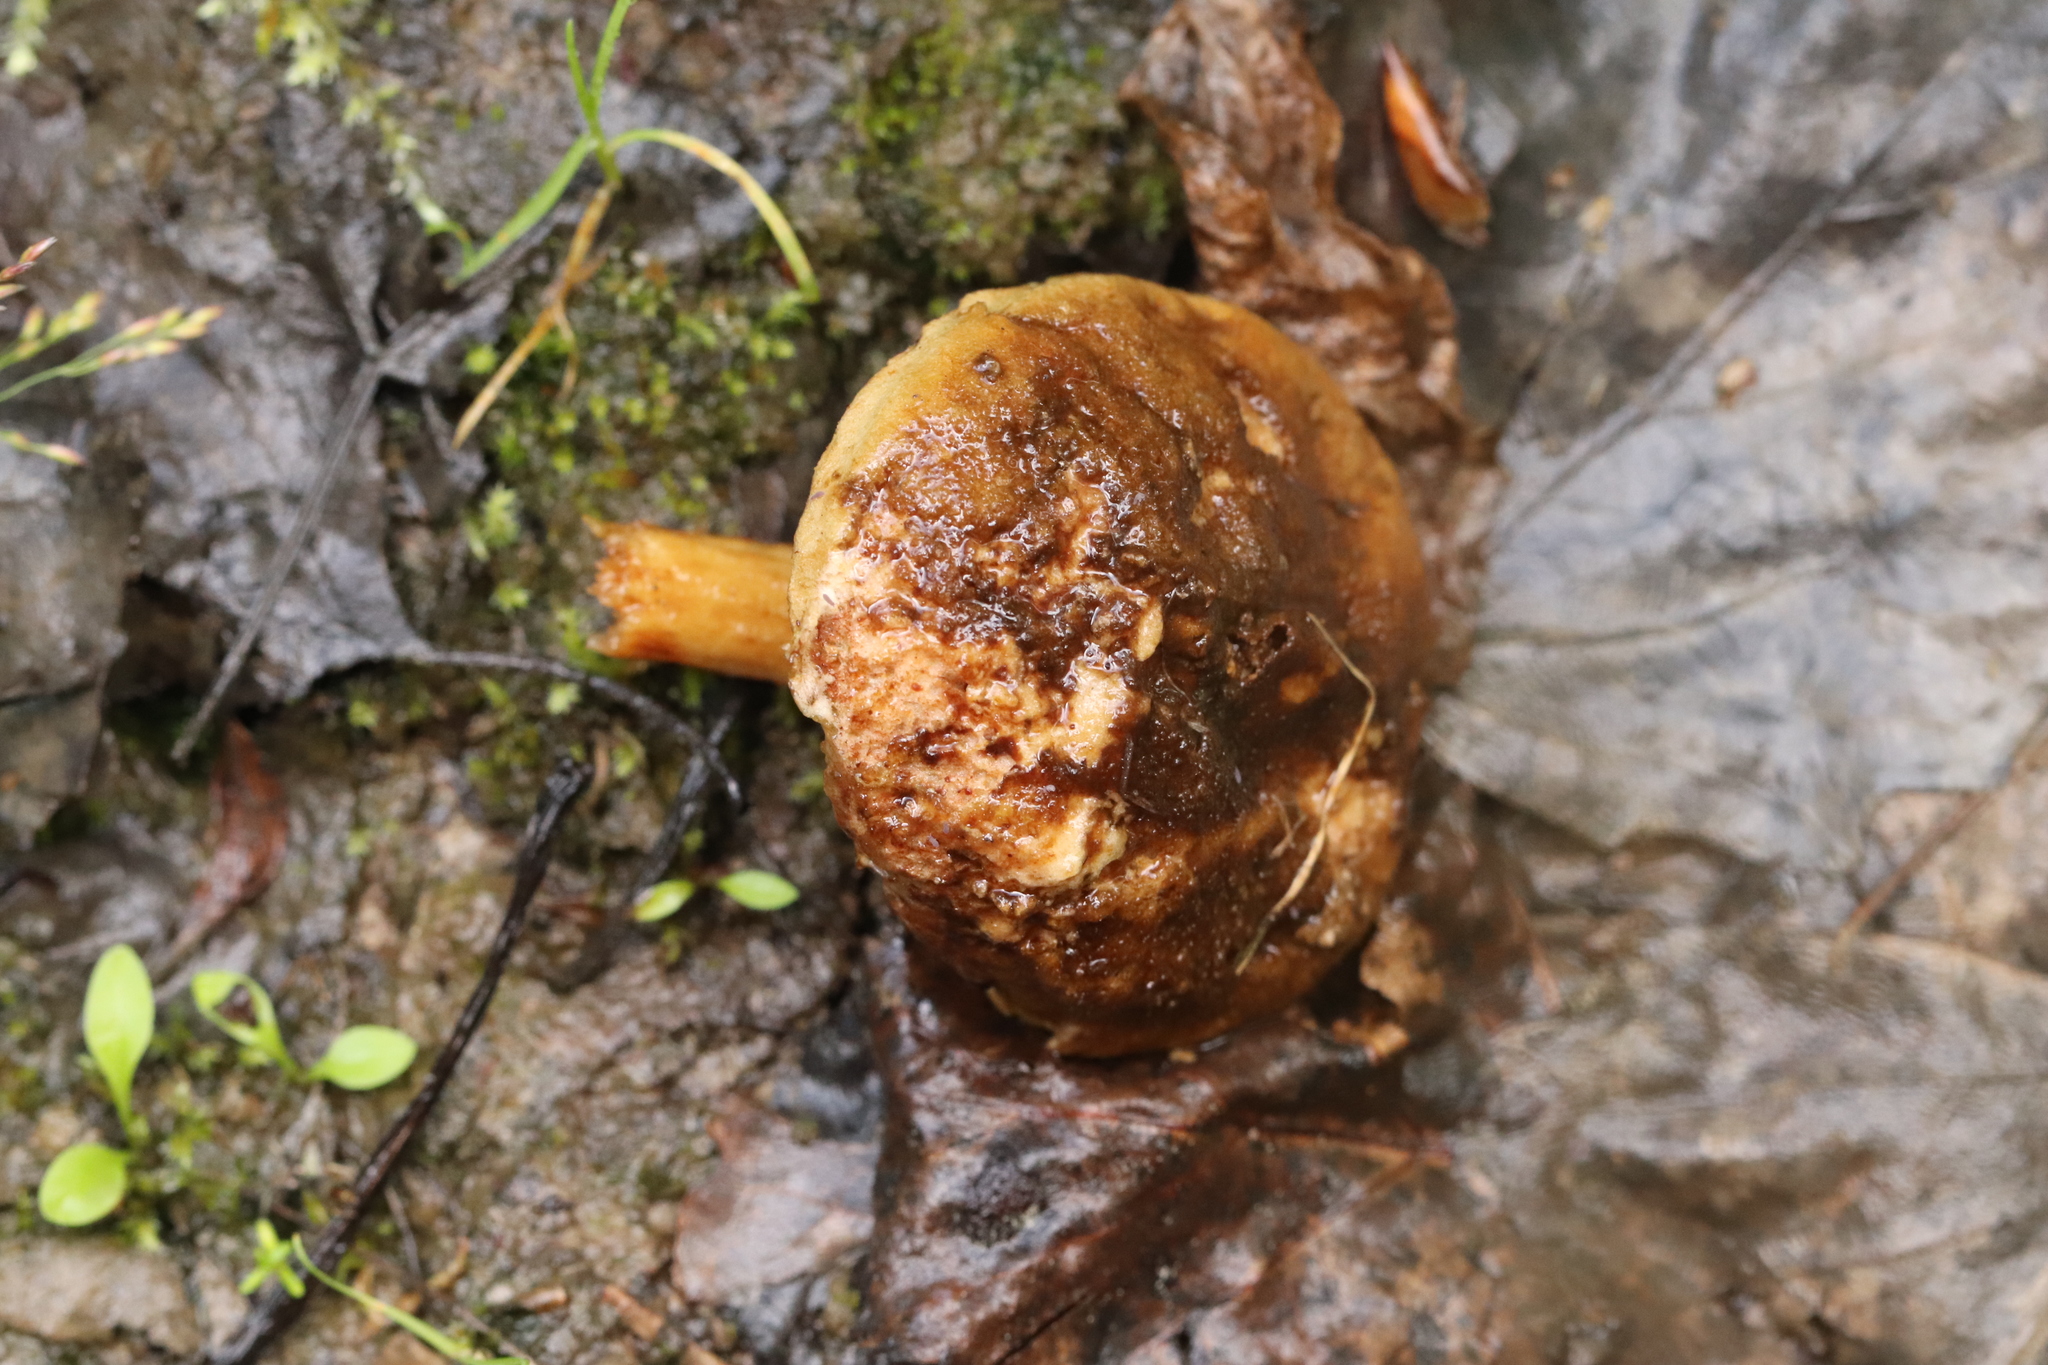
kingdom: Fungi
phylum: Basidiomycota
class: Agaricomycetes
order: Boletales
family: Boletaceae
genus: Xerocomus
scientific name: Xerocomus subtomentosus
